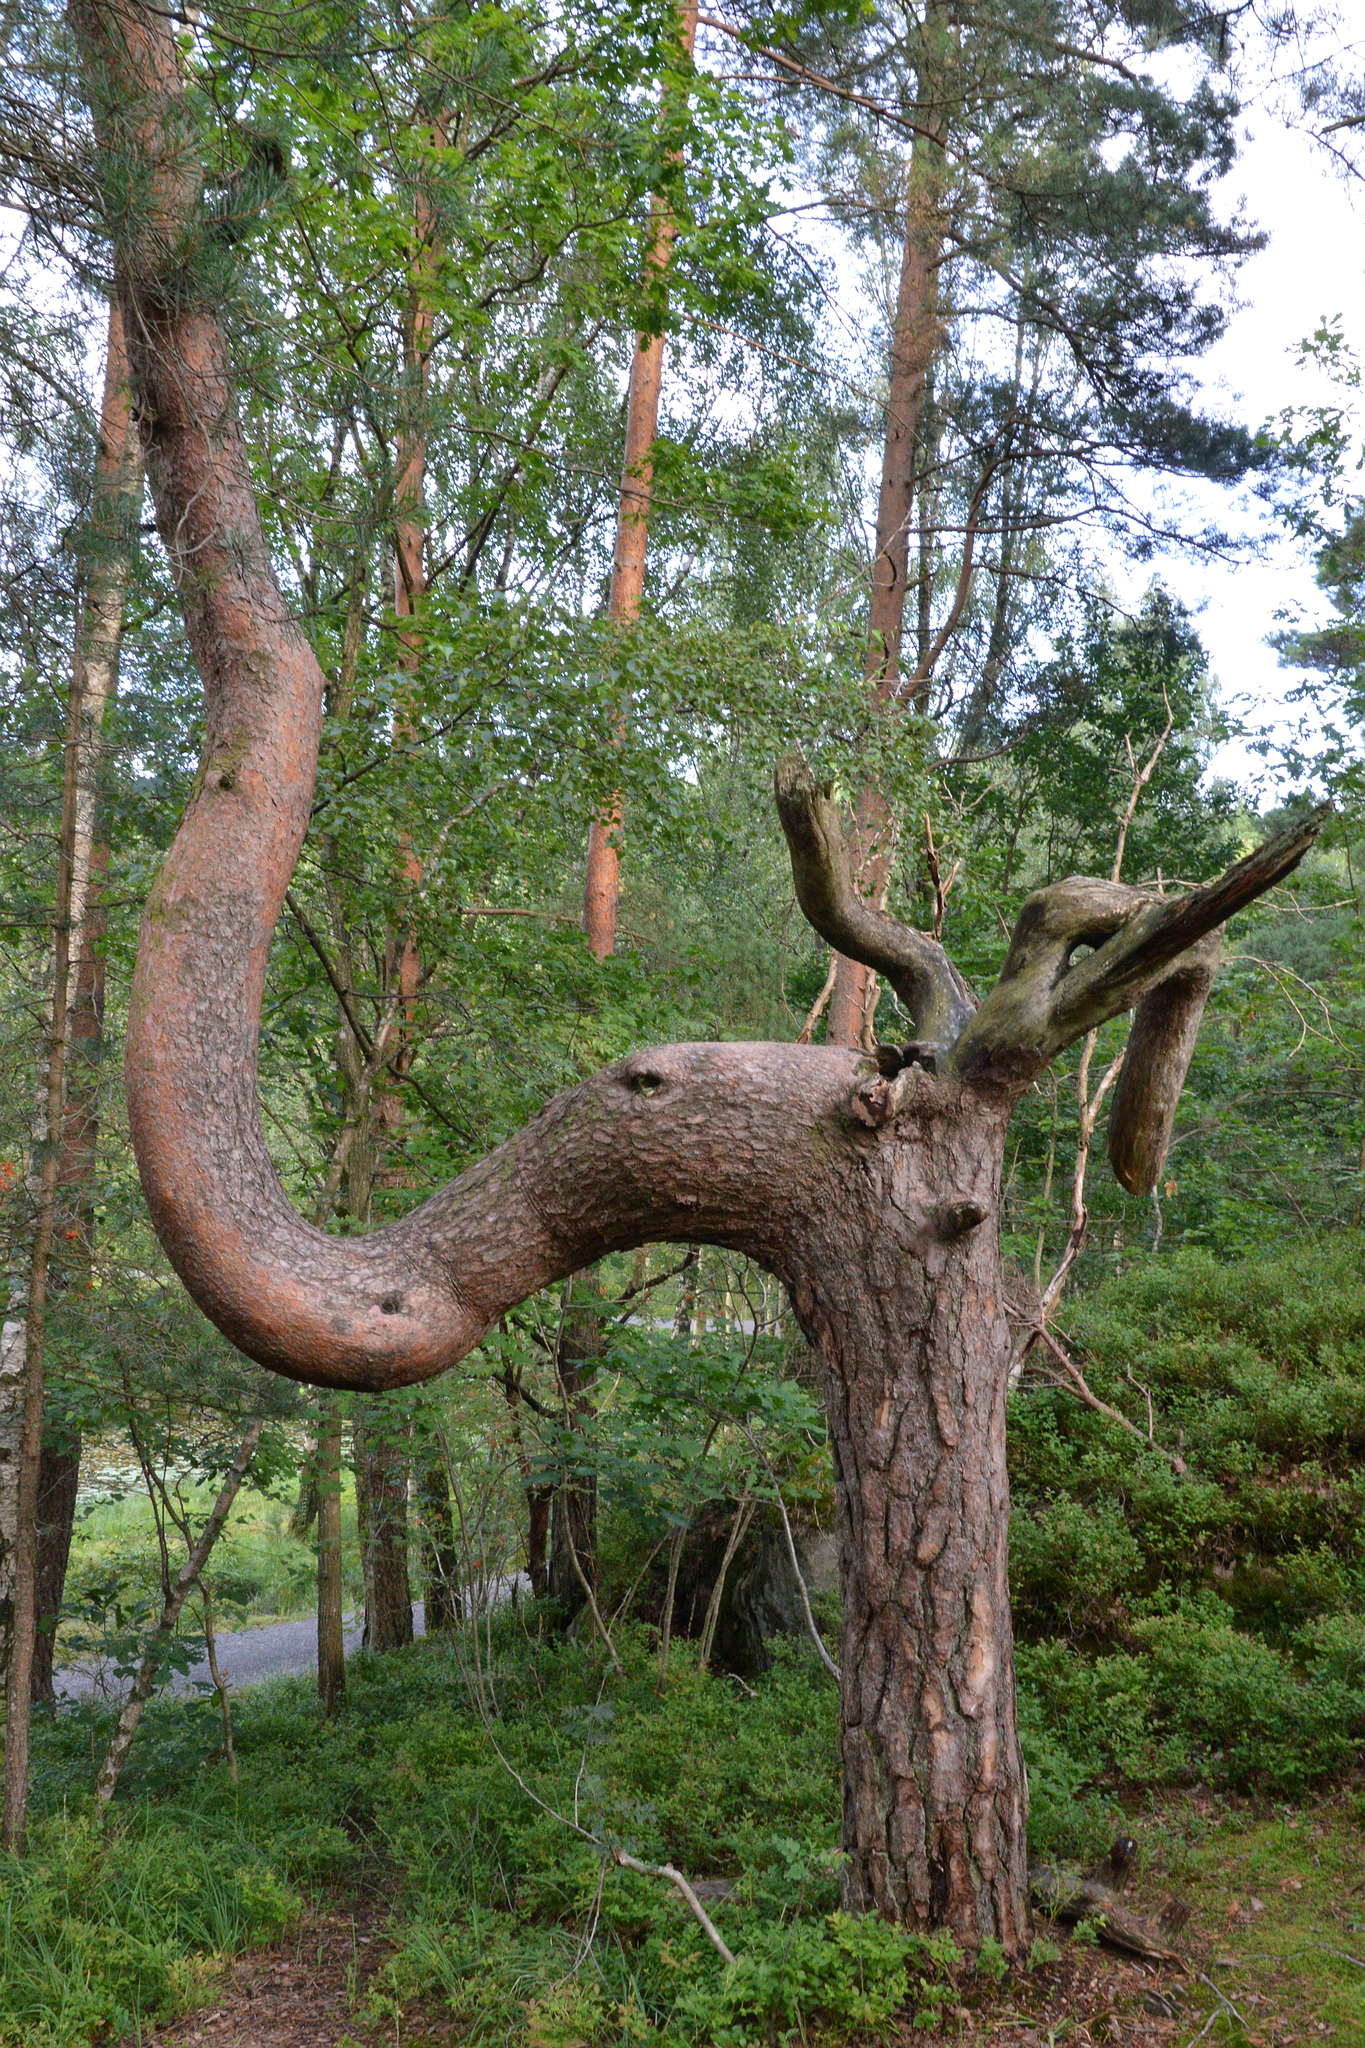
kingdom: Plantae
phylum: Tracheophyta
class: Pinopsida
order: Pinales
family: Pinaceae
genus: Pinus
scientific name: Pinus sylvestris
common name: Scots pine
